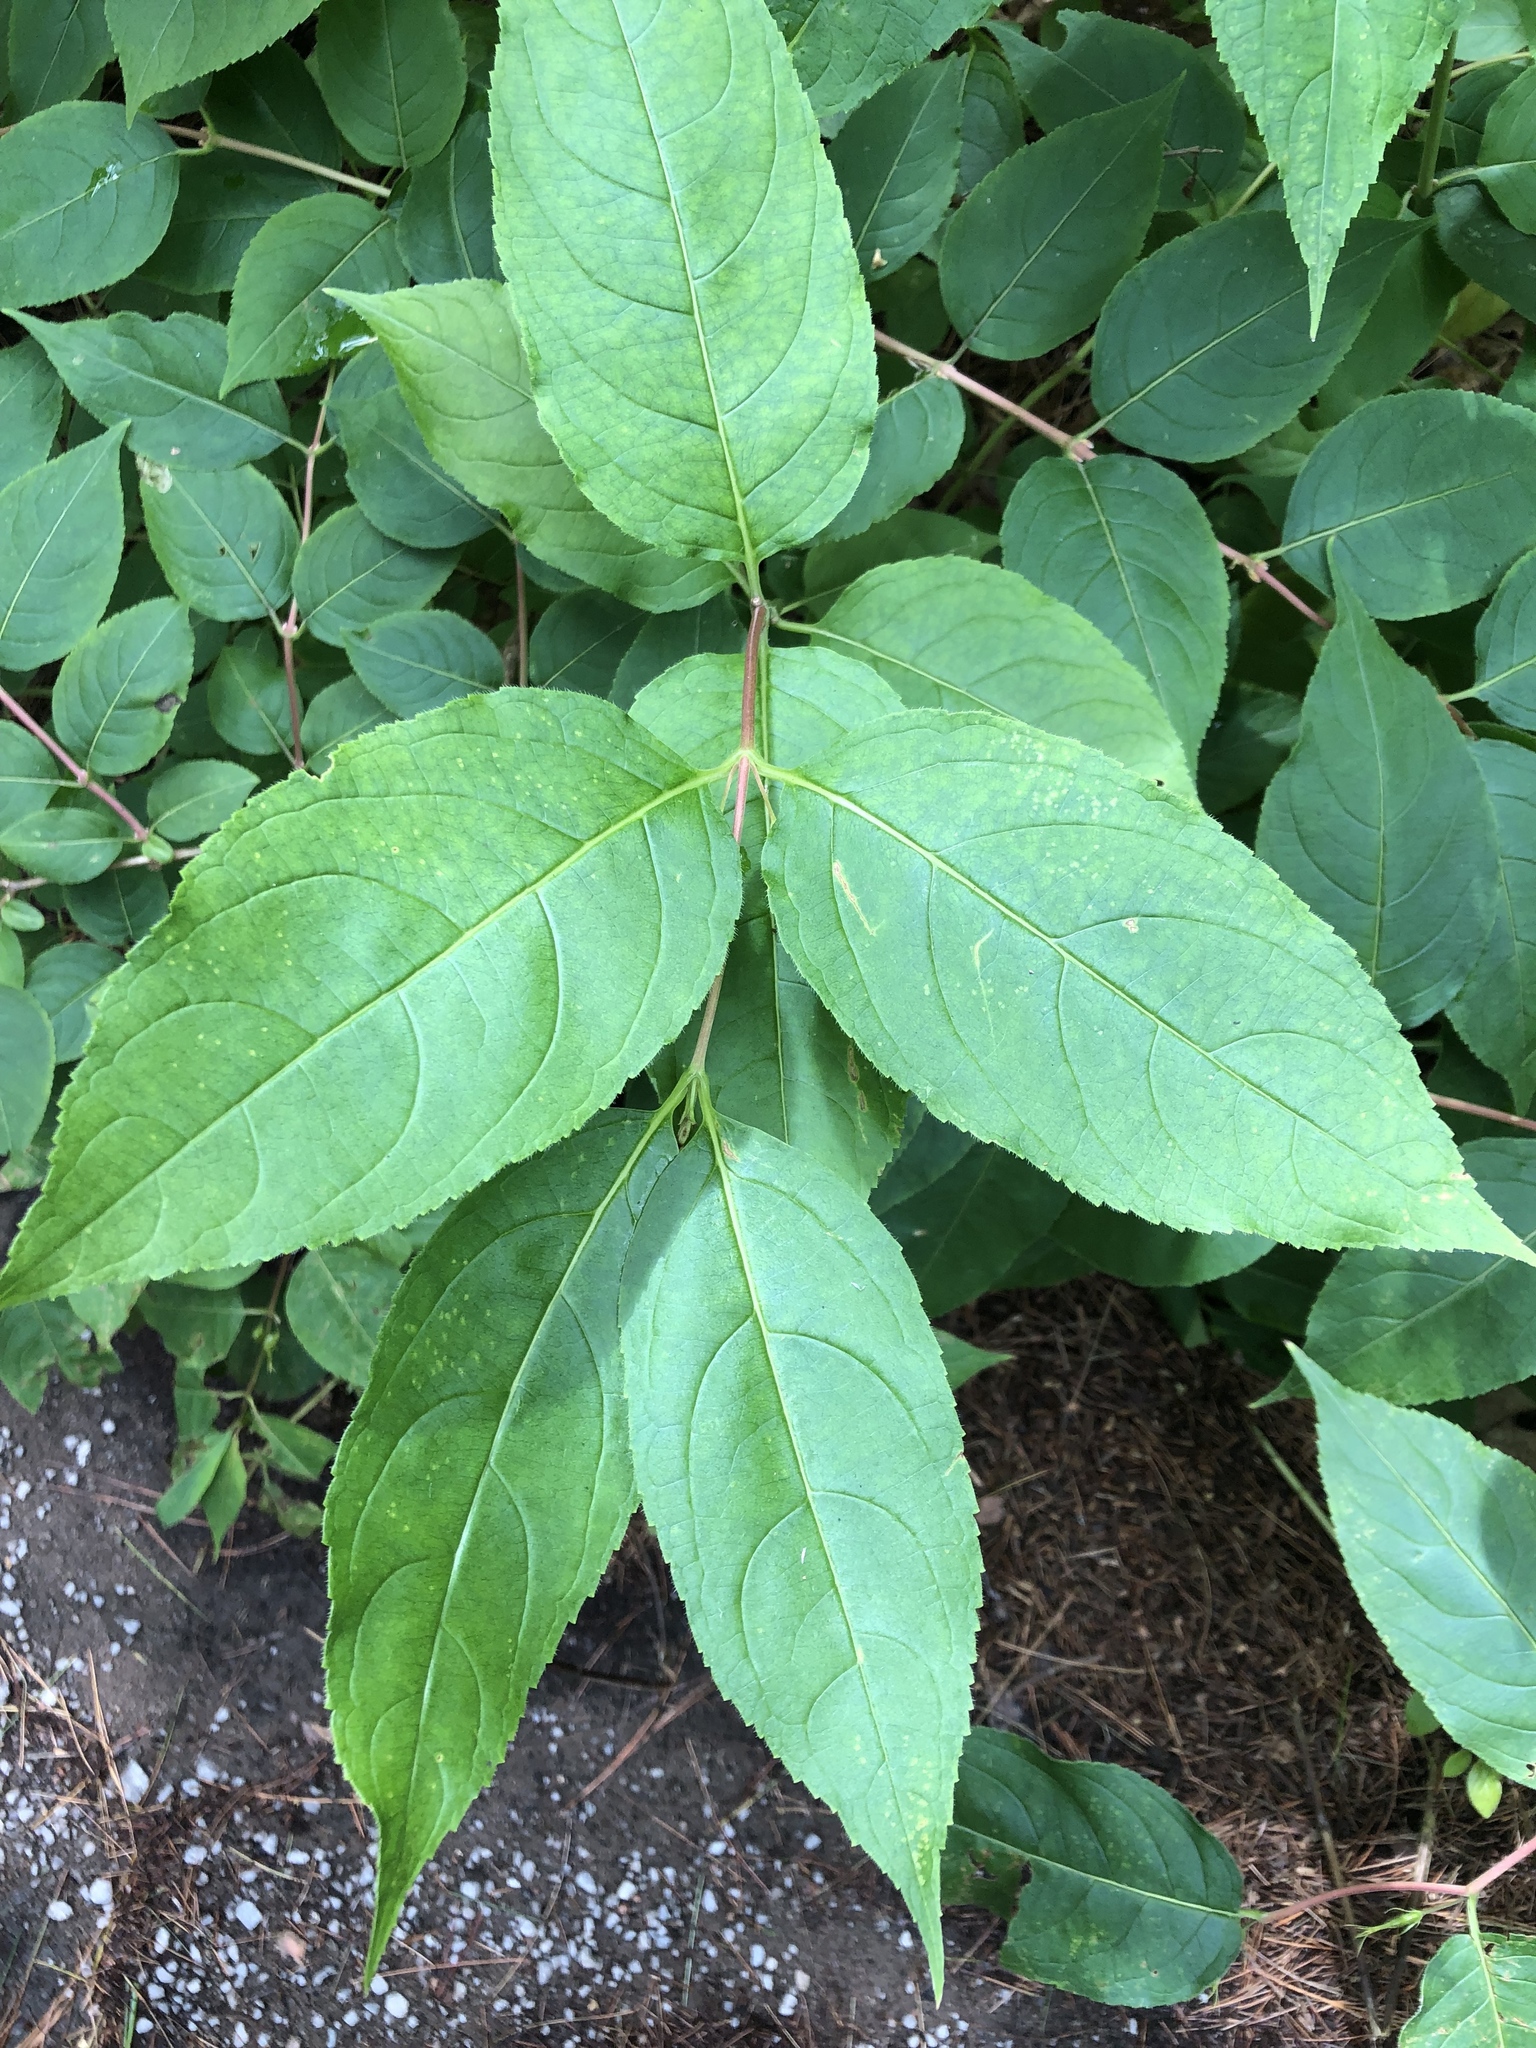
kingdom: Plantae
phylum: Tracheophyta
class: Magnoliopsida
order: Dipsacales
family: Caprifoliaceae
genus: Diervilla
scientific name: Diervilla lonicera
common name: Bush-honeysuckle
